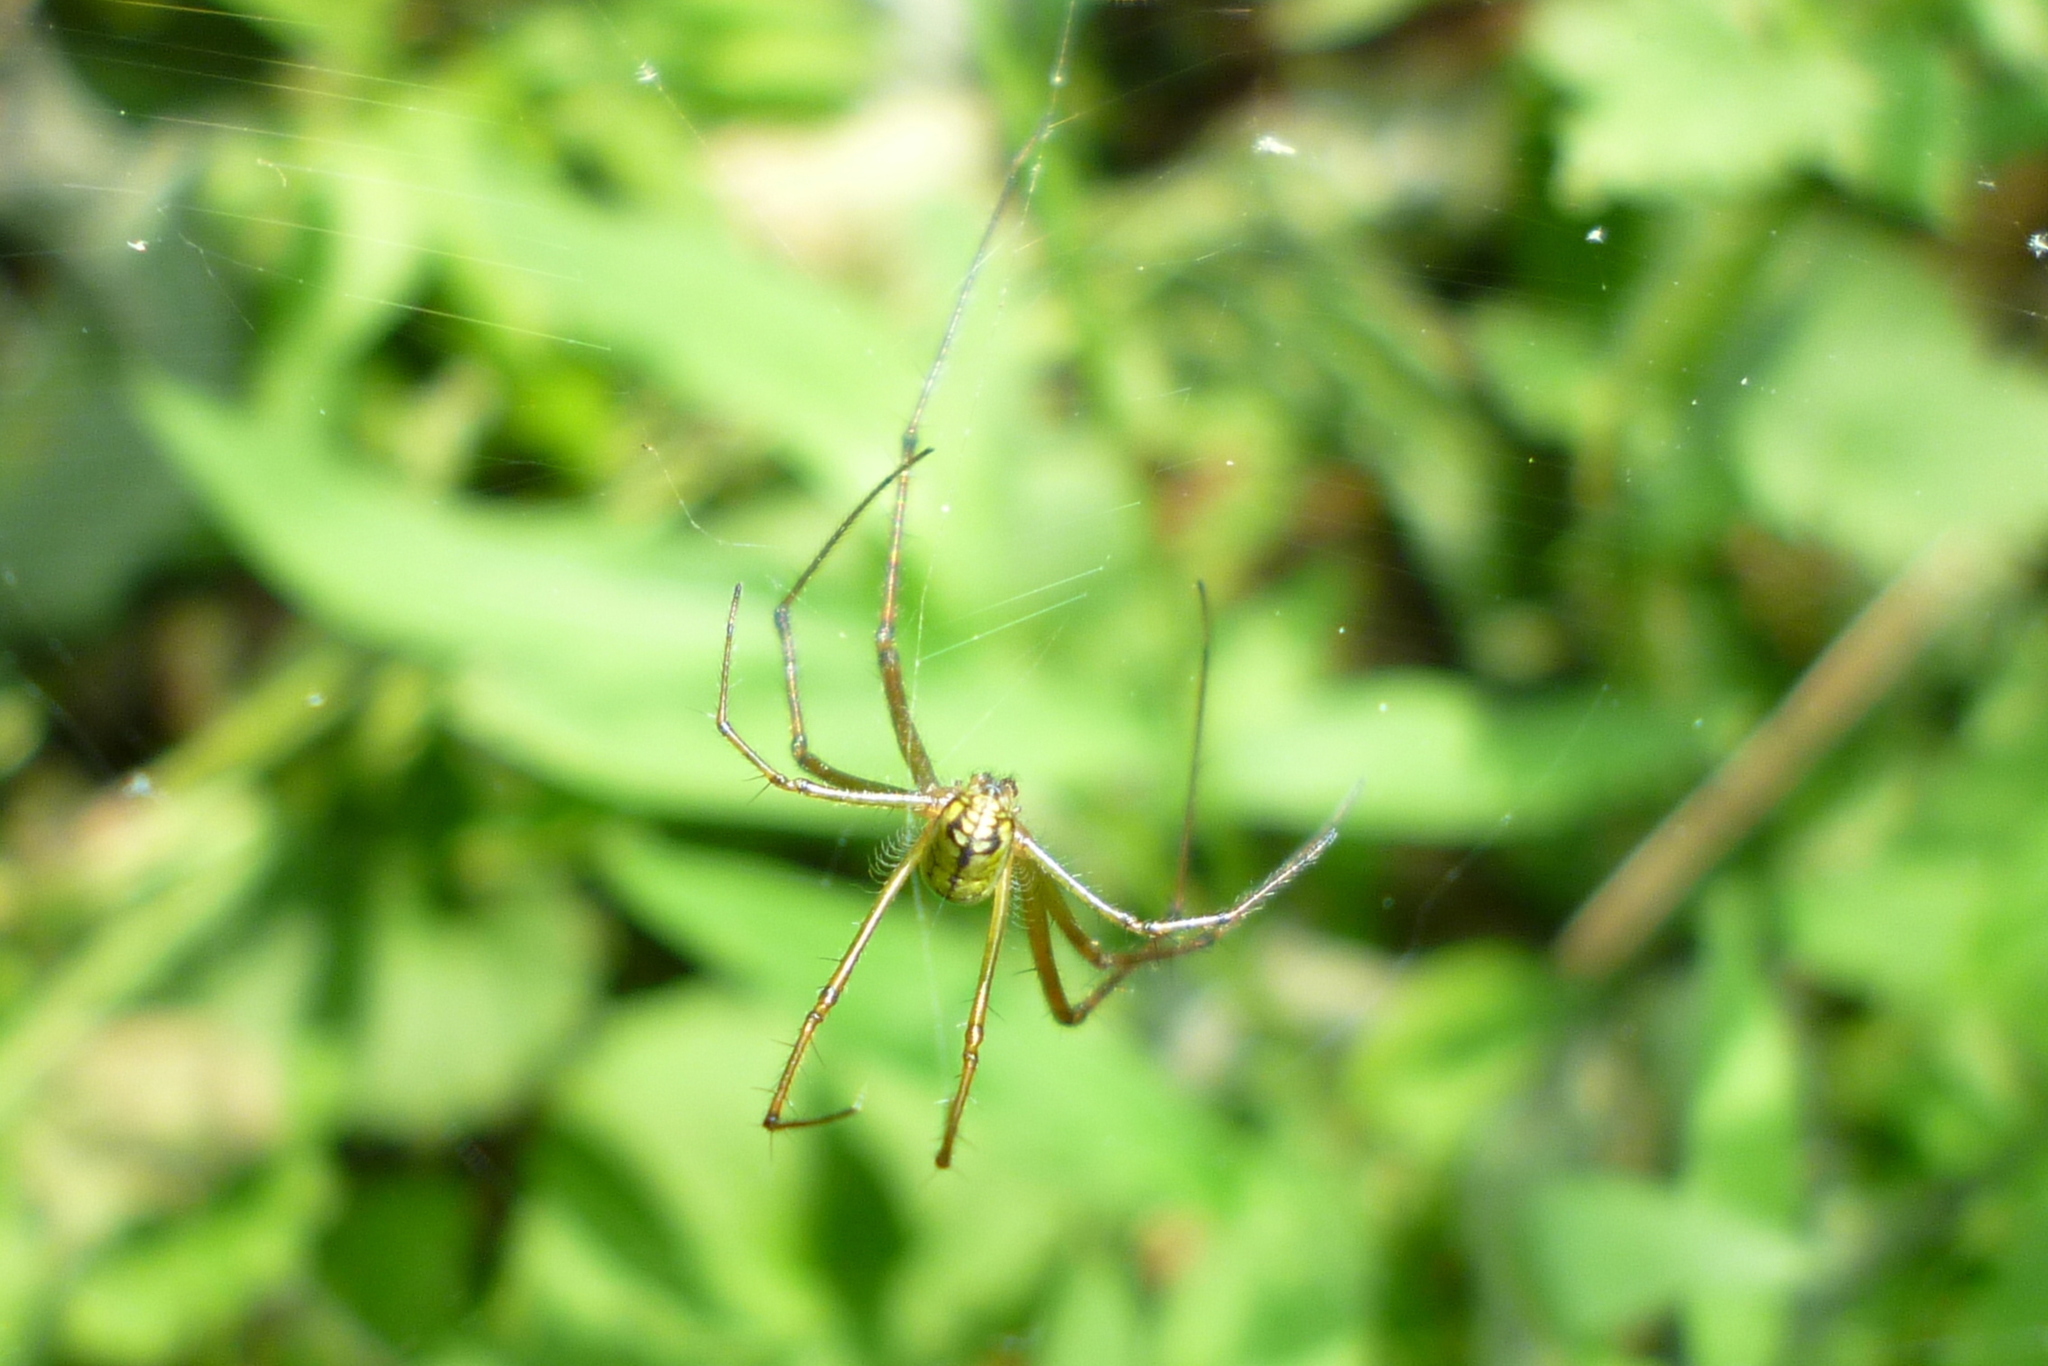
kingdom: Animalia
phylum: Arthropoda
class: Arachnida
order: Araneae
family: Tetragnathidae
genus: Leucauge
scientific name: Leucauge venusta
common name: Longjawed orb weavers
